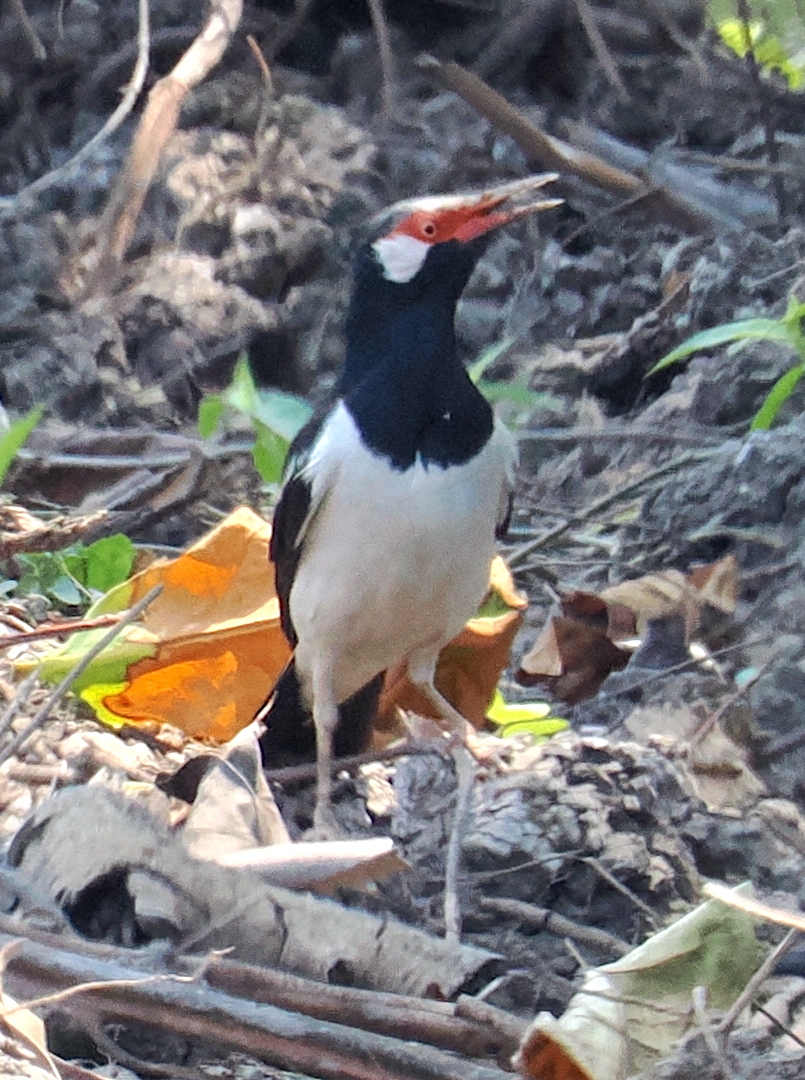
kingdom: Animalia
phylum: Chordata
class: Aves
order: Passeriformes
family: Sturnidae
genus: Gracupica
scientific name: Gracupica contra
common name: Pied myna
